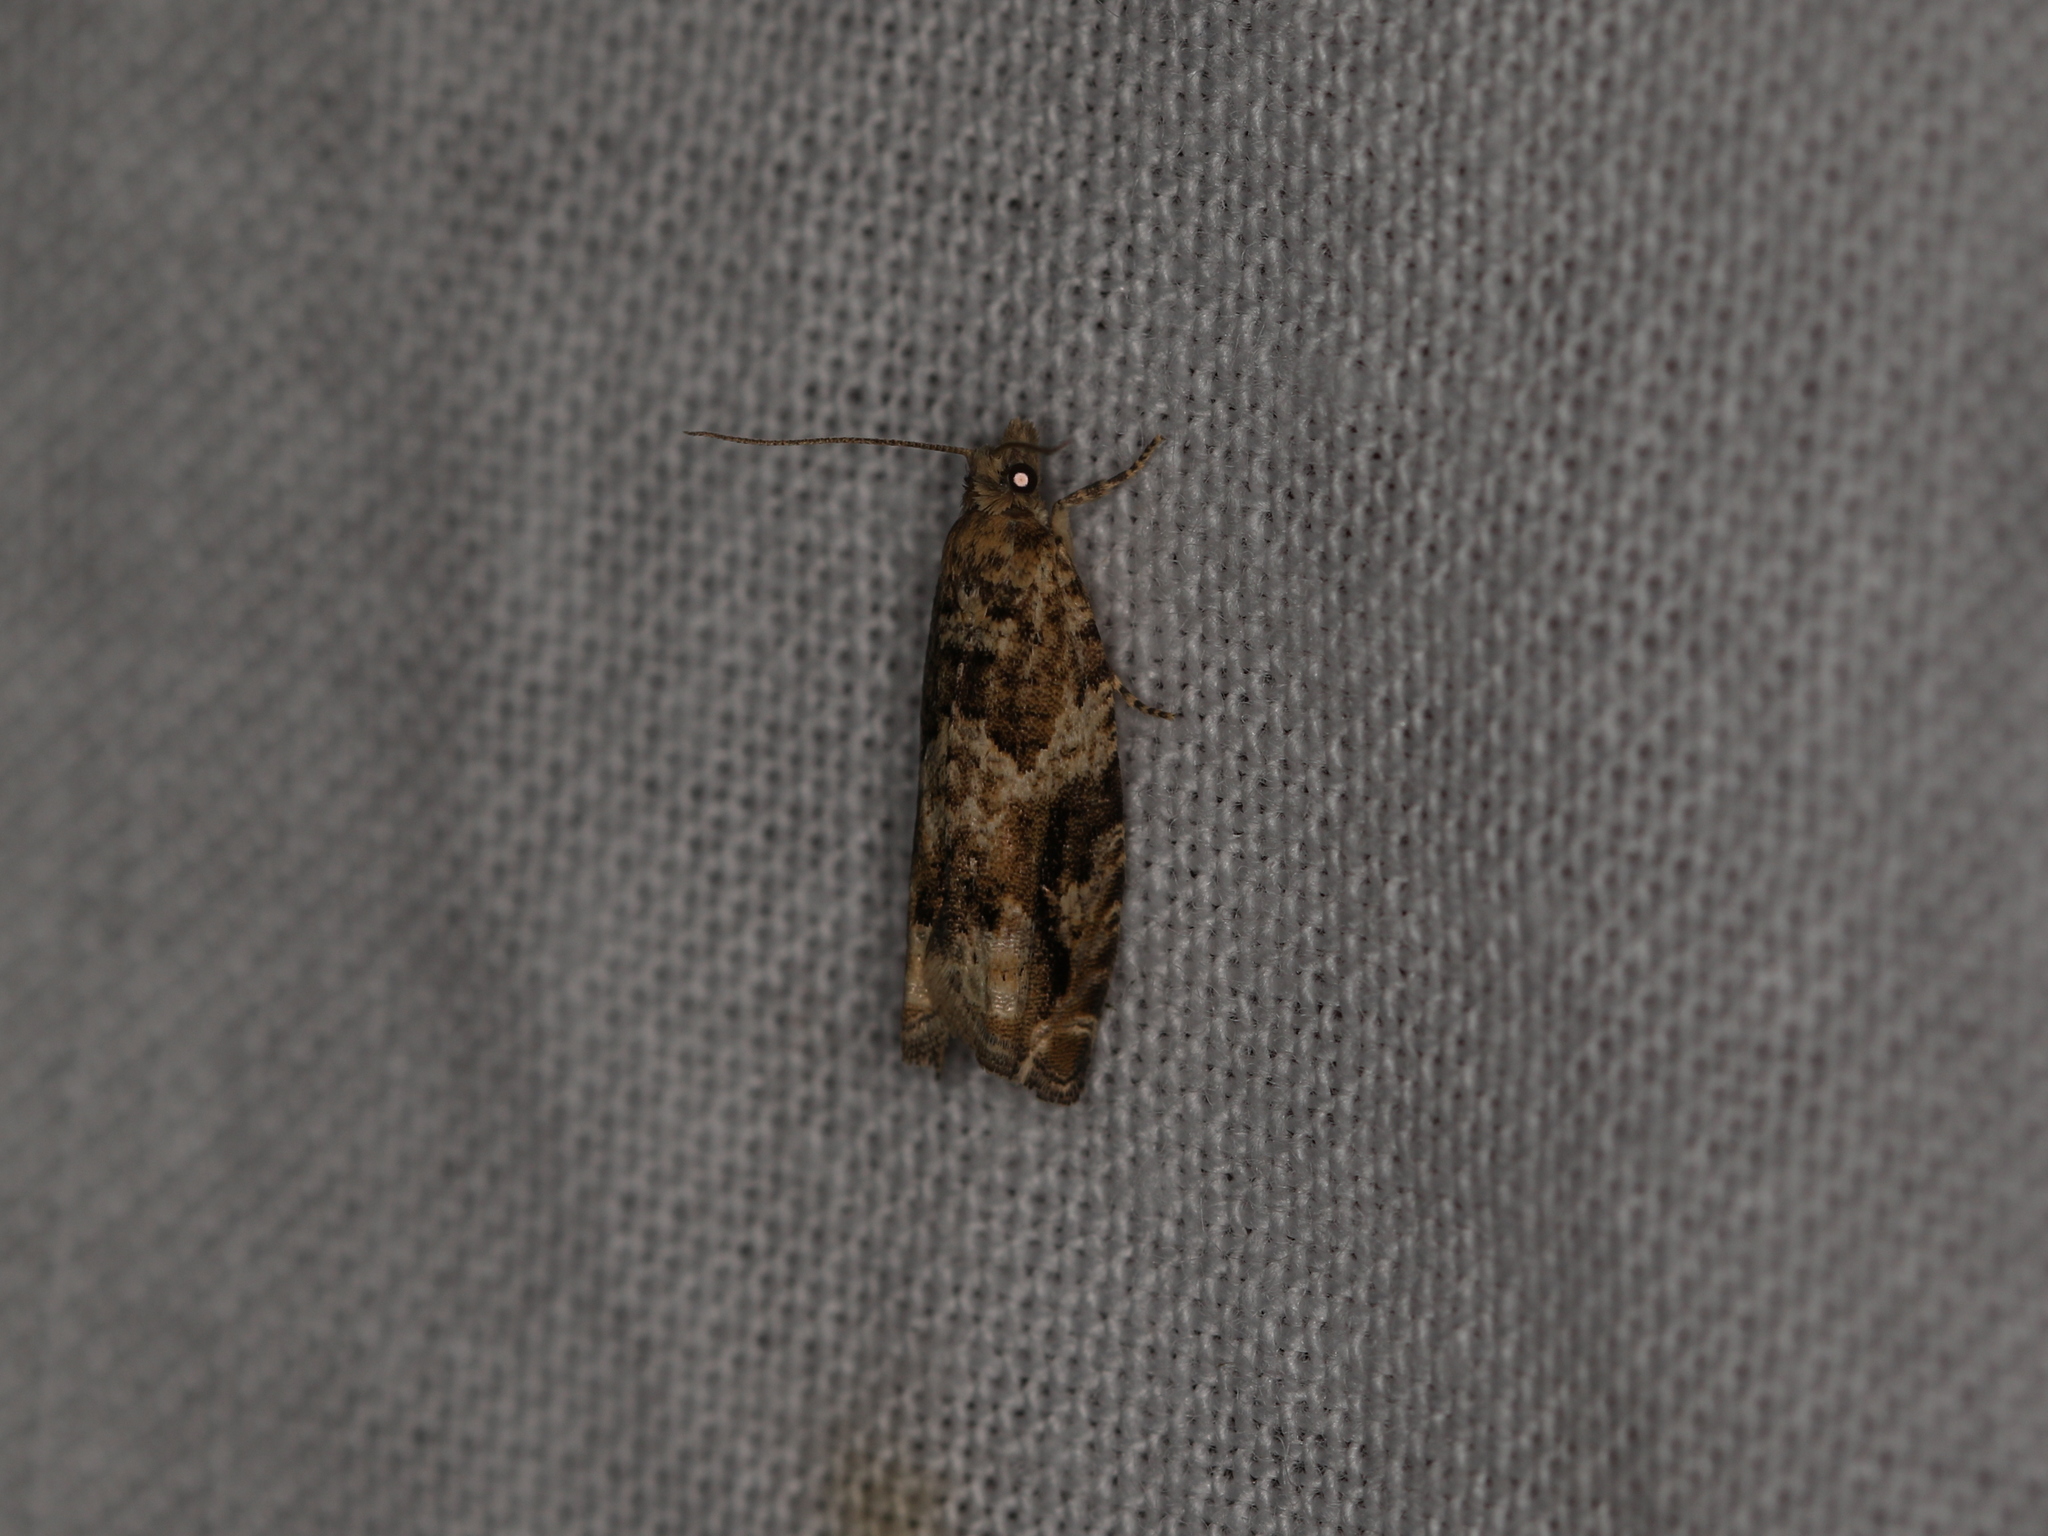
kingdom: Animalia
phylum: Arthropoda
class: Insecta
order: Lepidoptera
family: Tortricidae
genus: Epinotia
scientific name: Epinotia signatana
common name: Black-brindled bell
